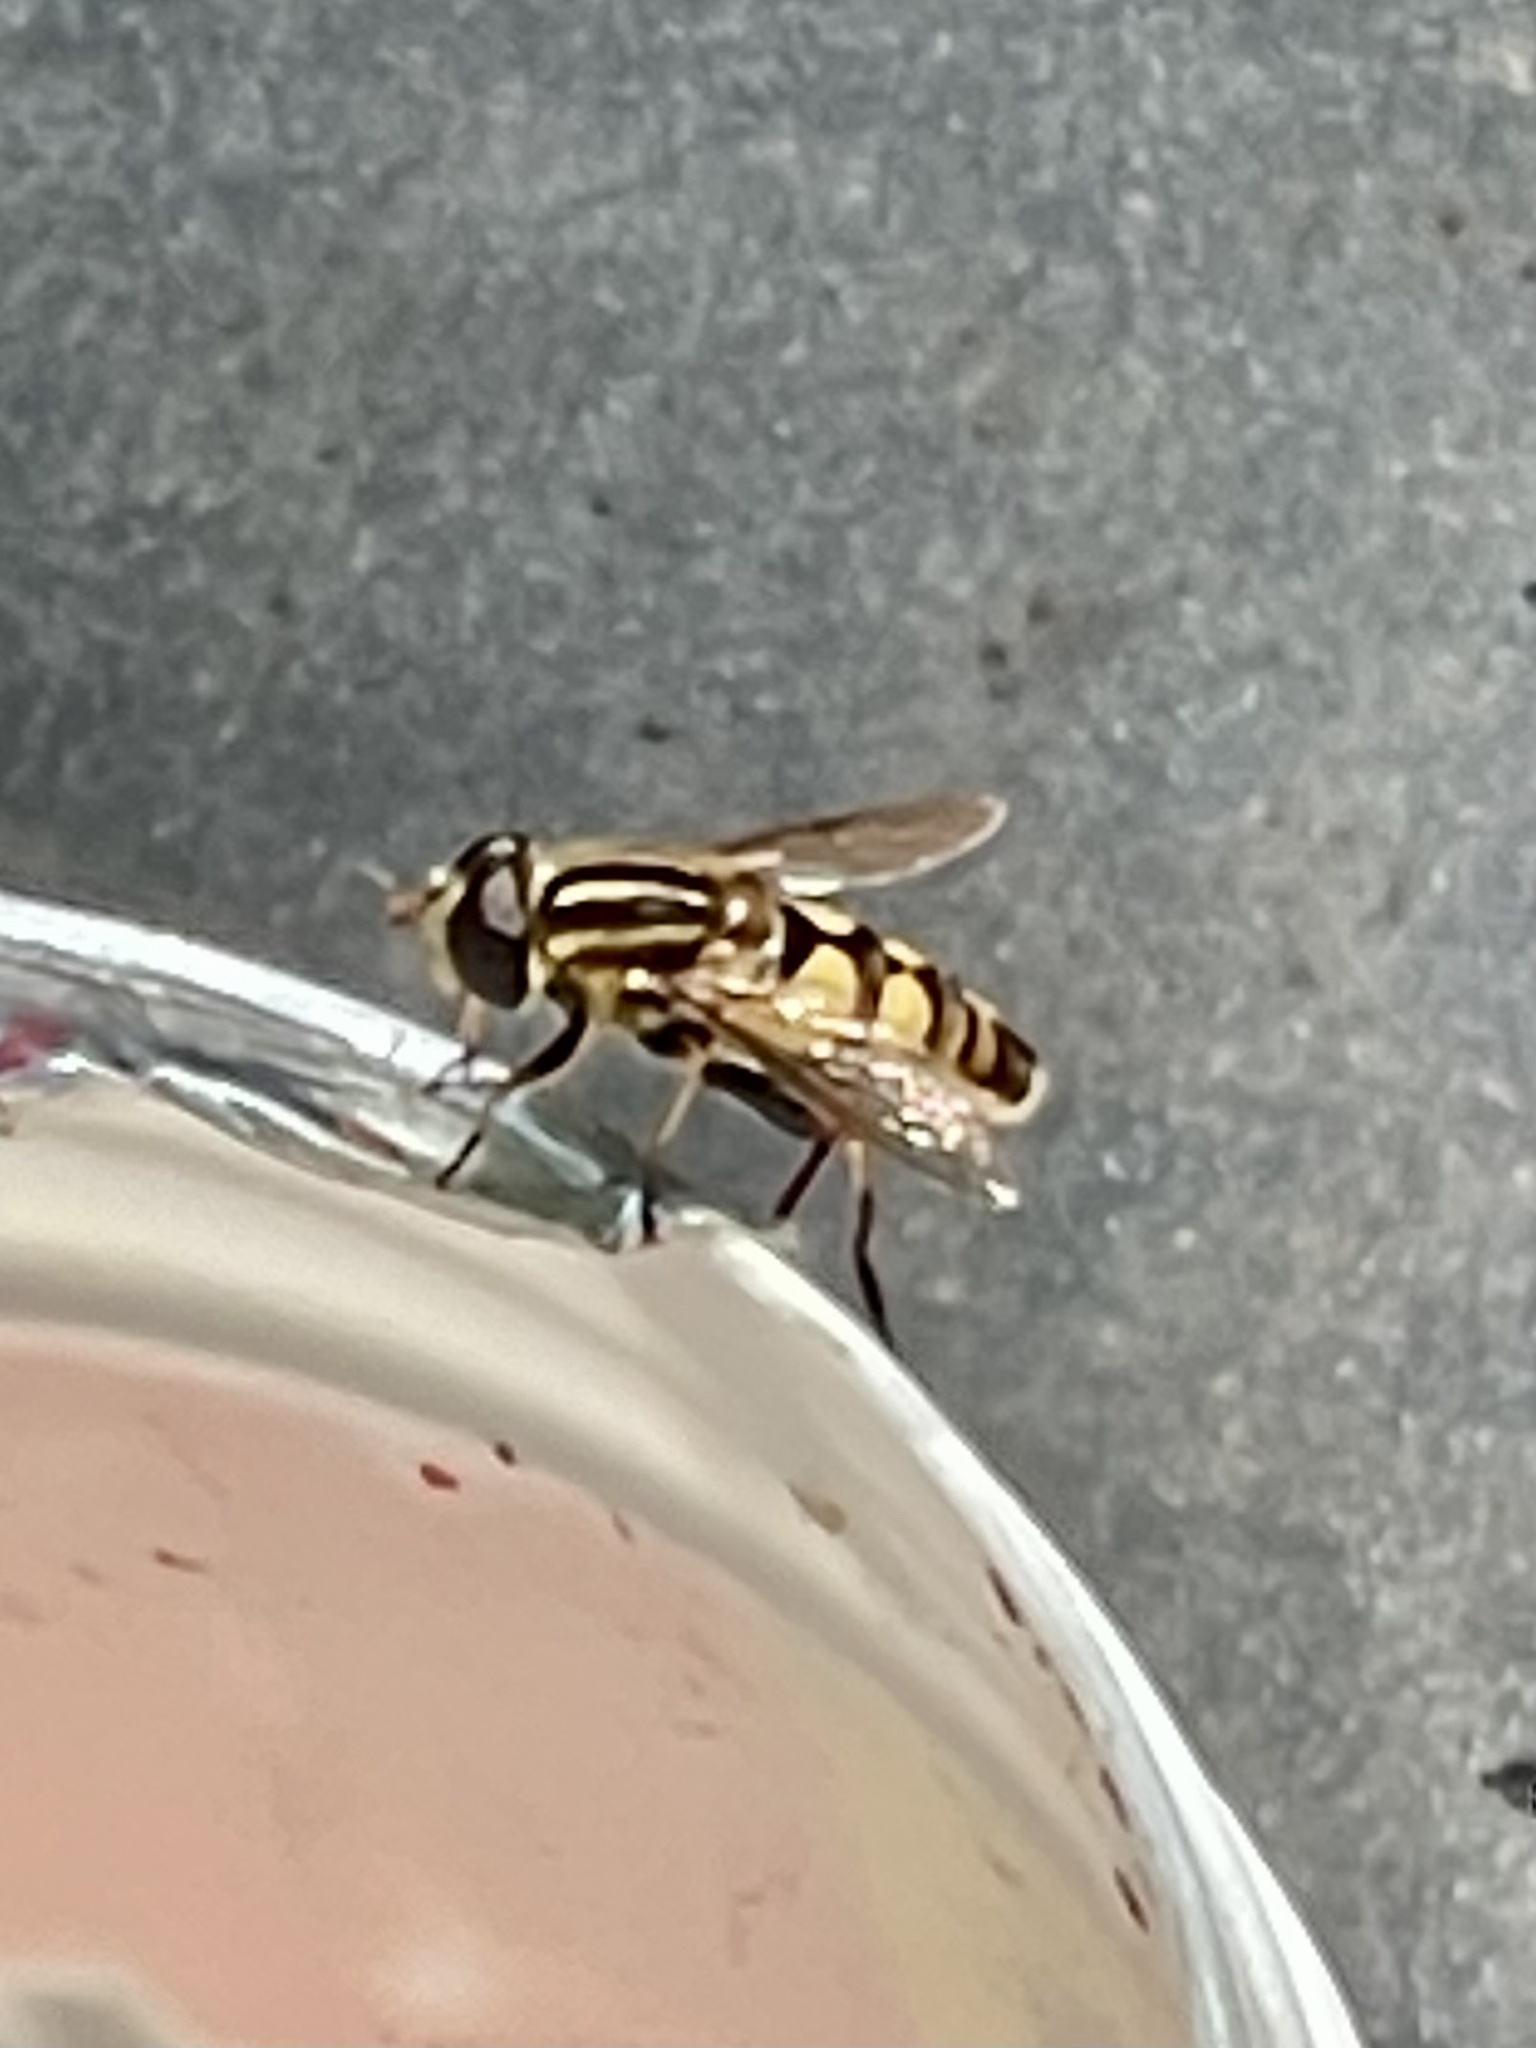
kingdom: Animalia
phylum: Arthropoda
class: Insecta
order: Diptera
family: Syrphidae
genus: Helophilus
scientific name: Helophilus fasciatus
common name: Narrow-headed marsh fly
